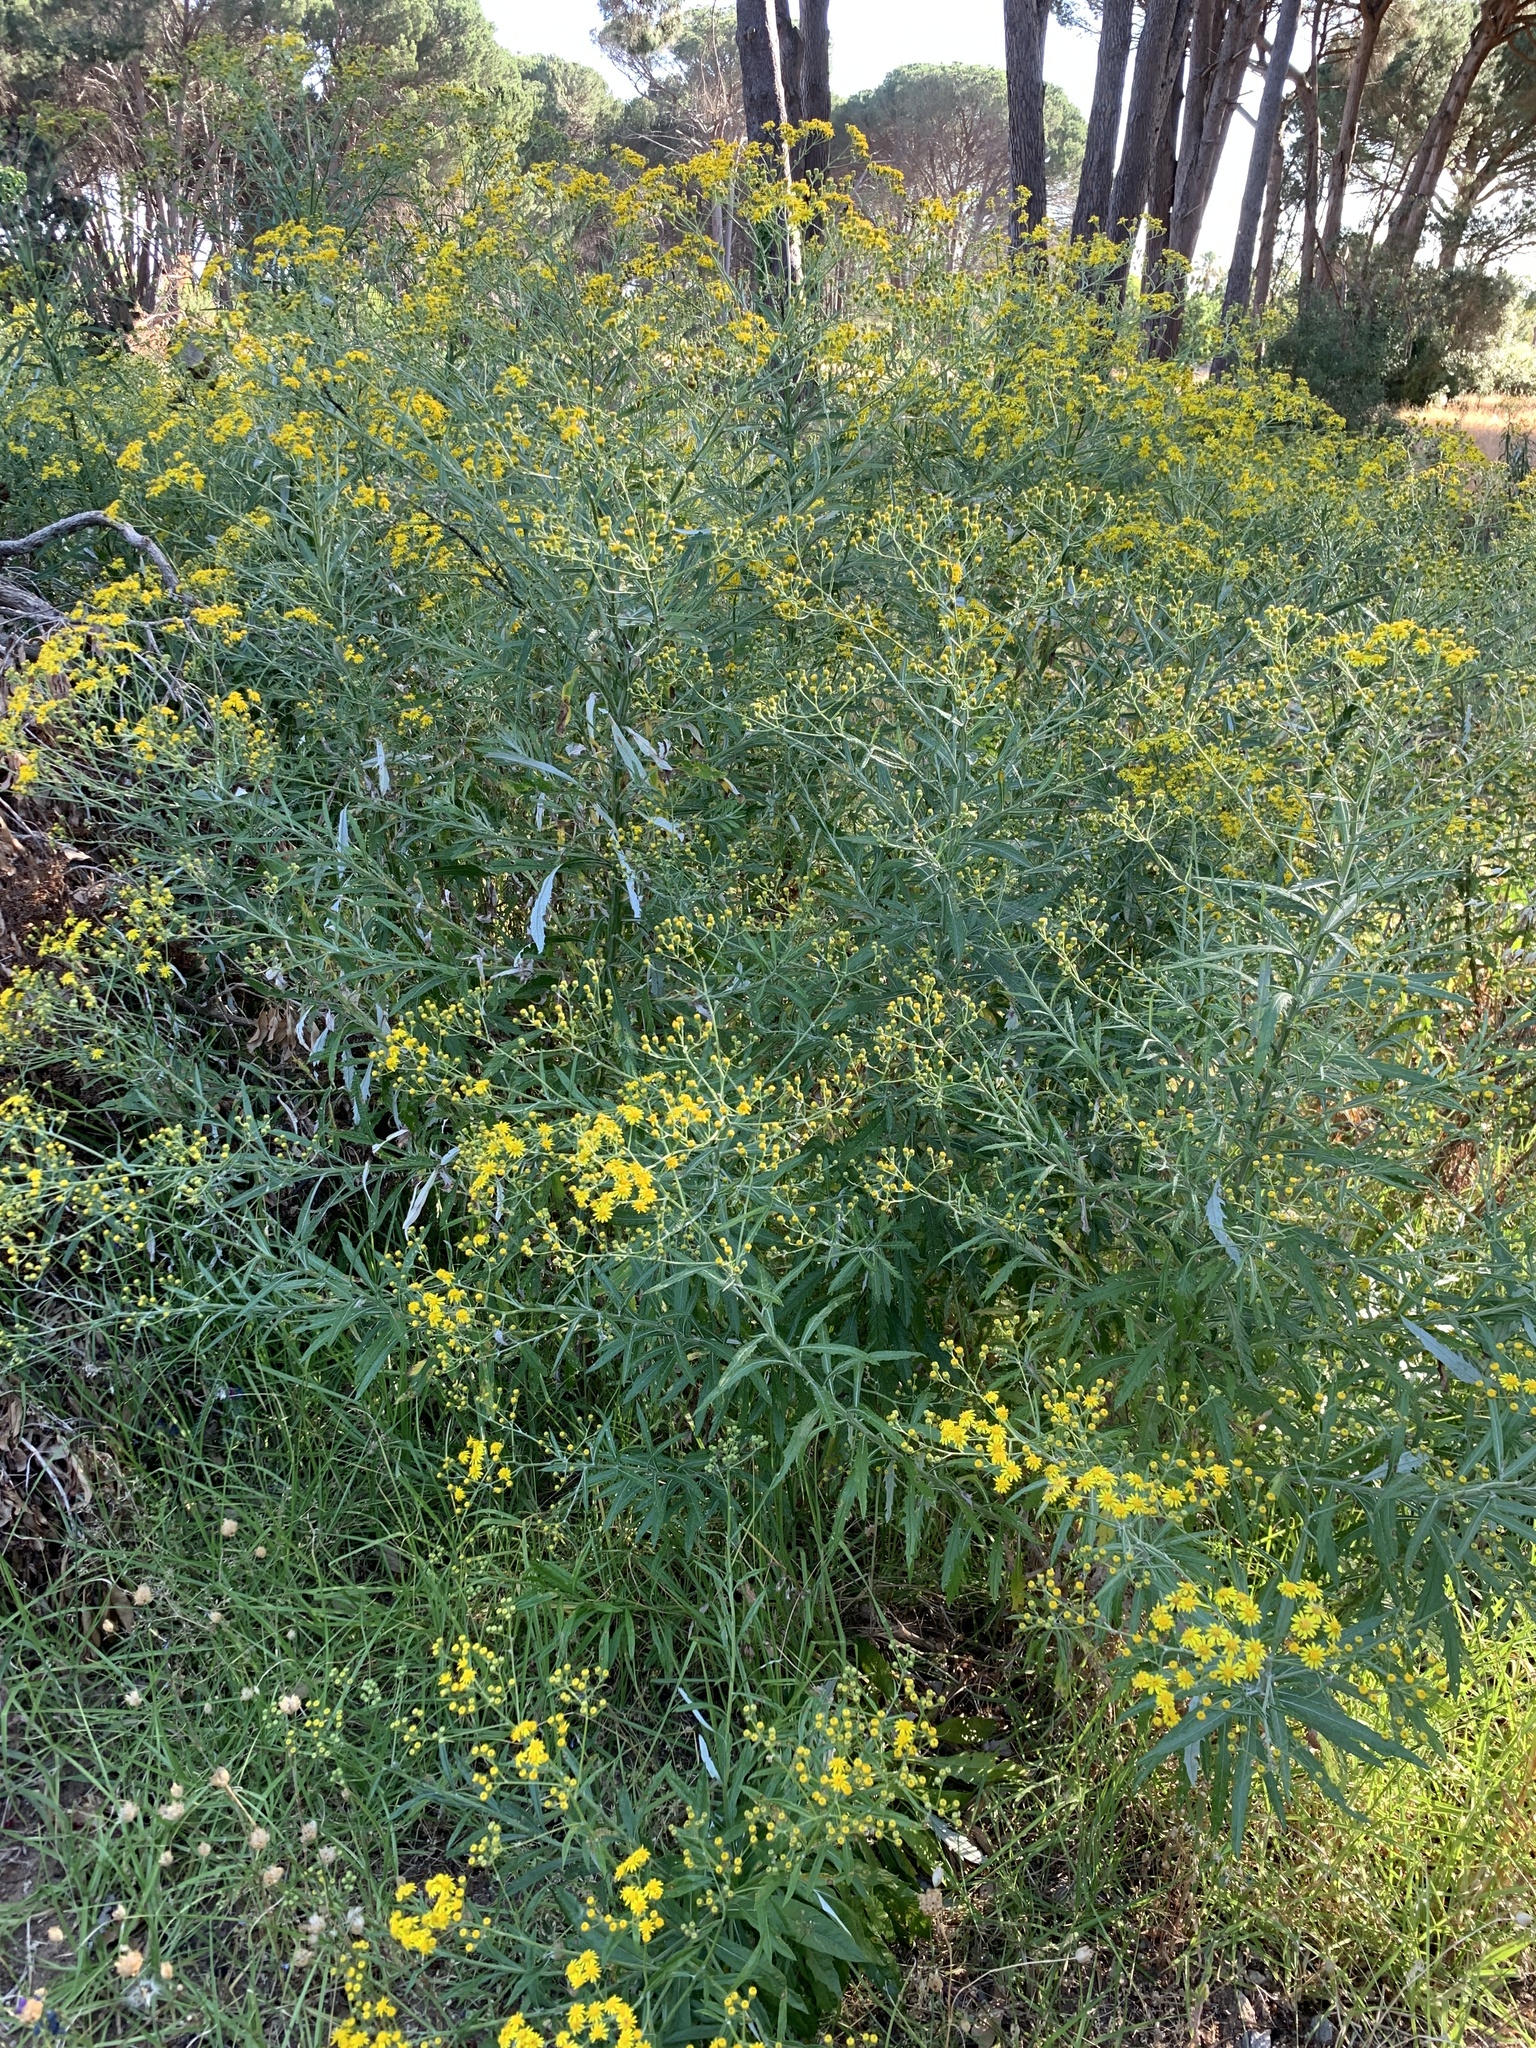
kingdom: Plantae
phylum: Tracheophyta
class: Magnoliopsida
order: Asterales
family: Asteraceae
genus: Senecio
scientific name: Senecio pterophorus
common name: Shoddy ragwort
